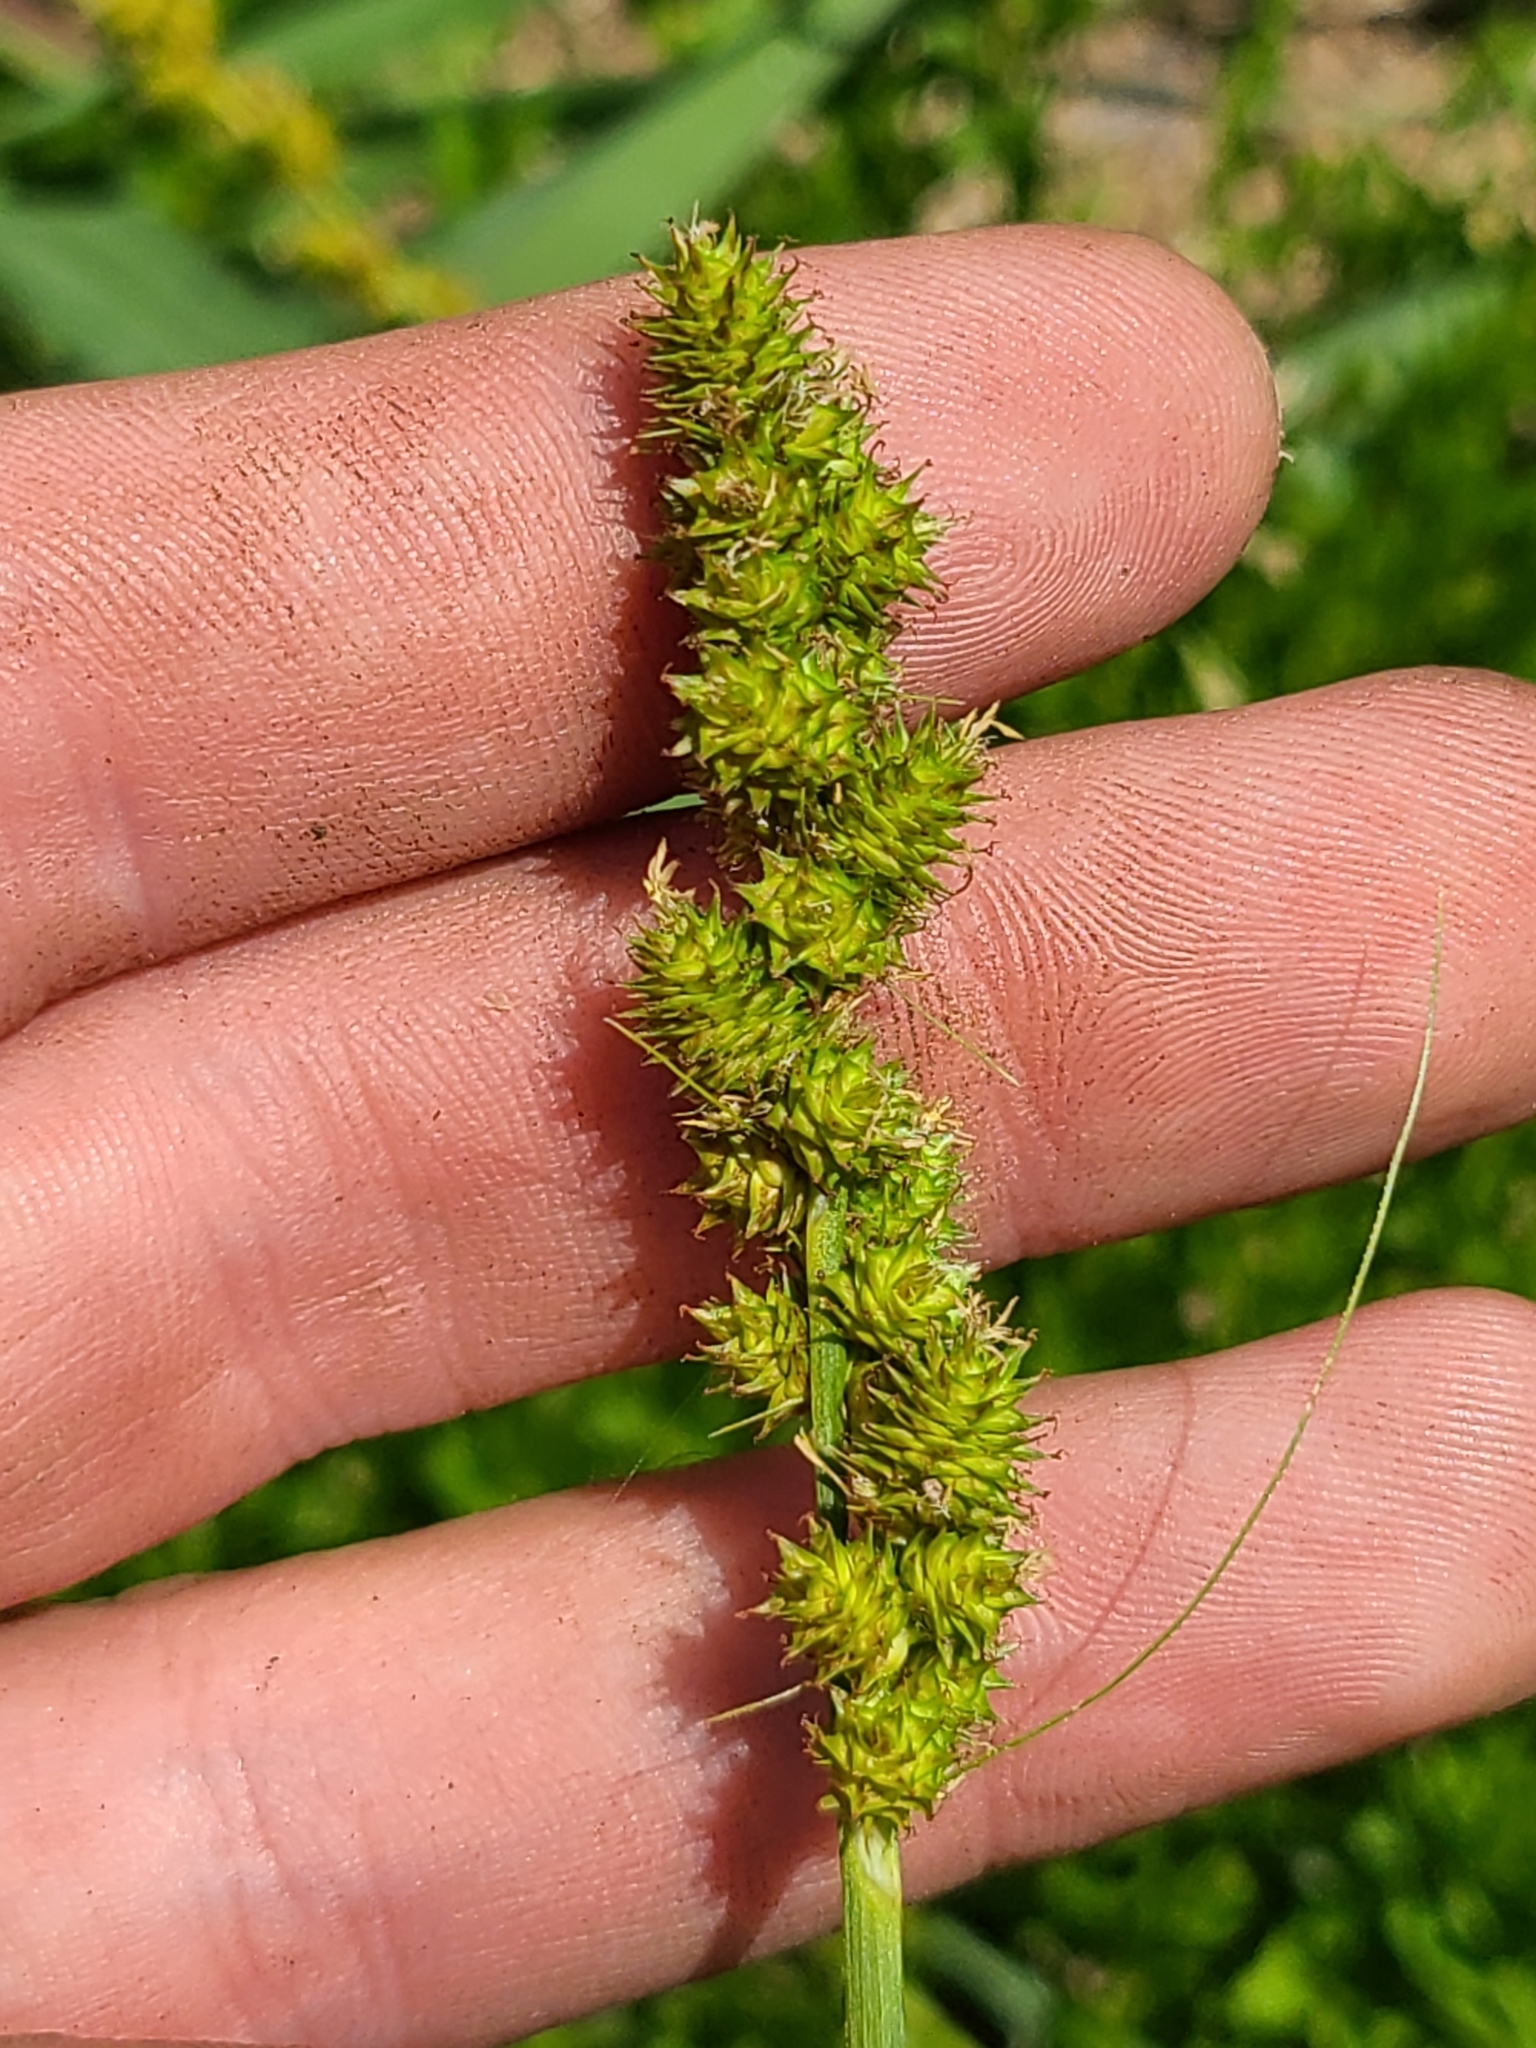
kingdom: Plantae
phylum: Tracheophyta
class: Liliopsida
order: Poales
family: Cyperaceae
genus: Carex
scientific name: Carex vulpinoidea
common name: American fox-sedge
